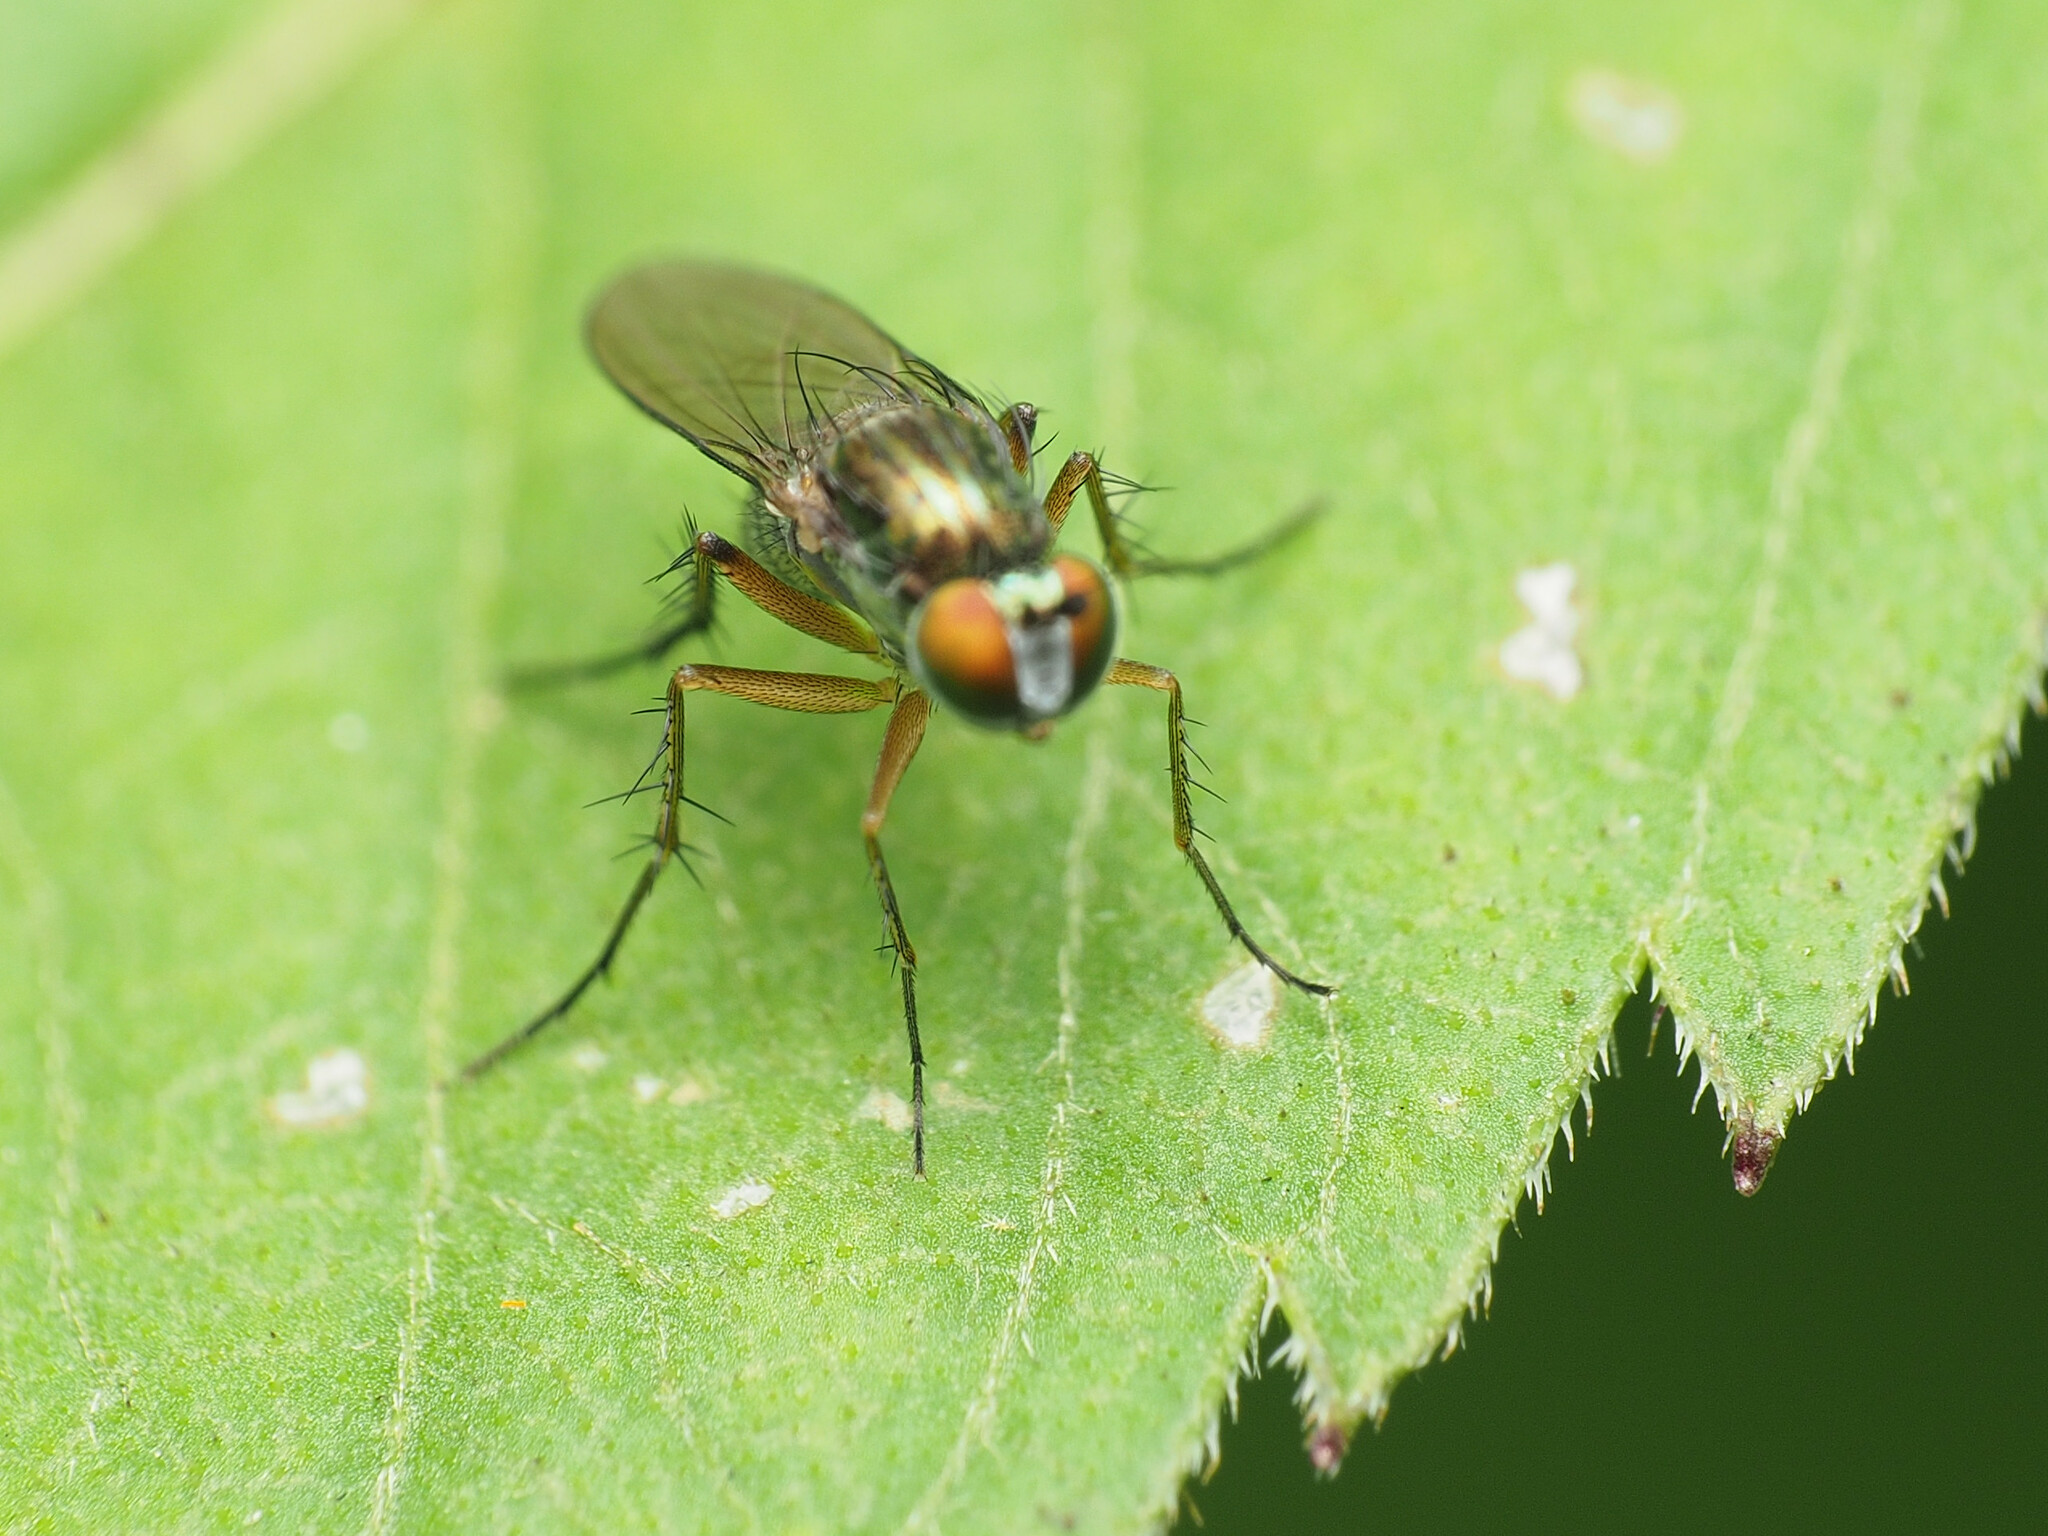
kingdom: Animalia
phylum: Arthropoda
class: Insecta
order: Diptera
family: Dolichopodidae
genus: Dolichopus
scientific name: Dolichopus comatus
